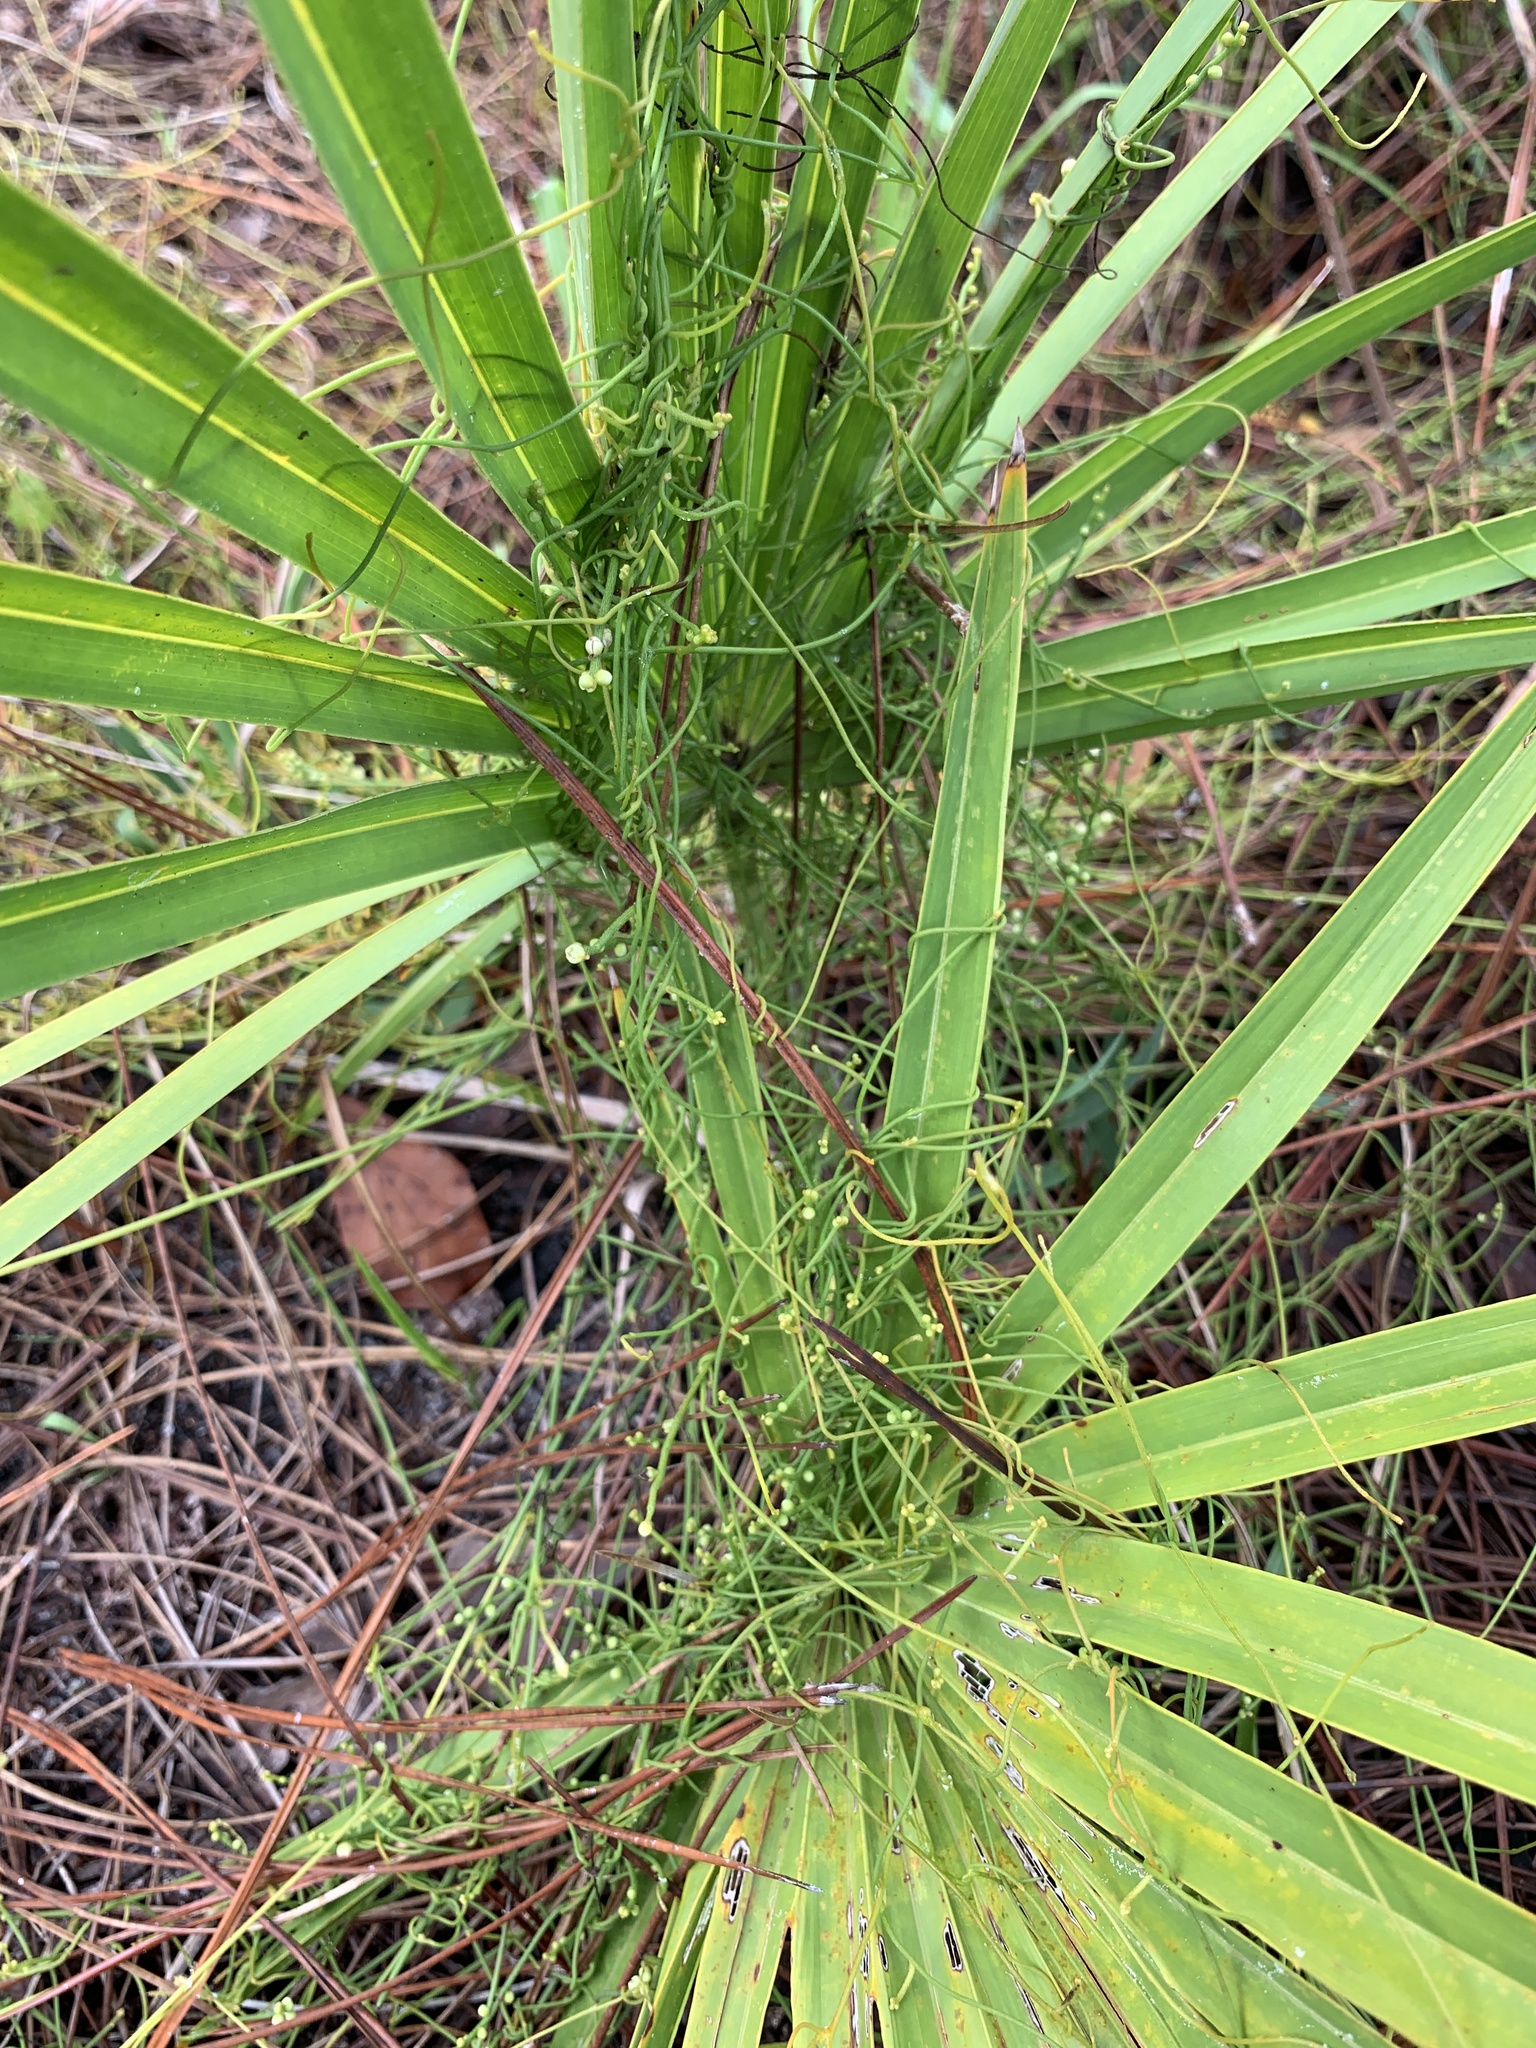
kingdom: Plantae
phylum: Tracheophyta
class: Magnoliopsida
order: Laurales
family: Lauraceae
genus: Cassytha
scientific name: Cassytha filiformis
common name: Dodder-laurel
